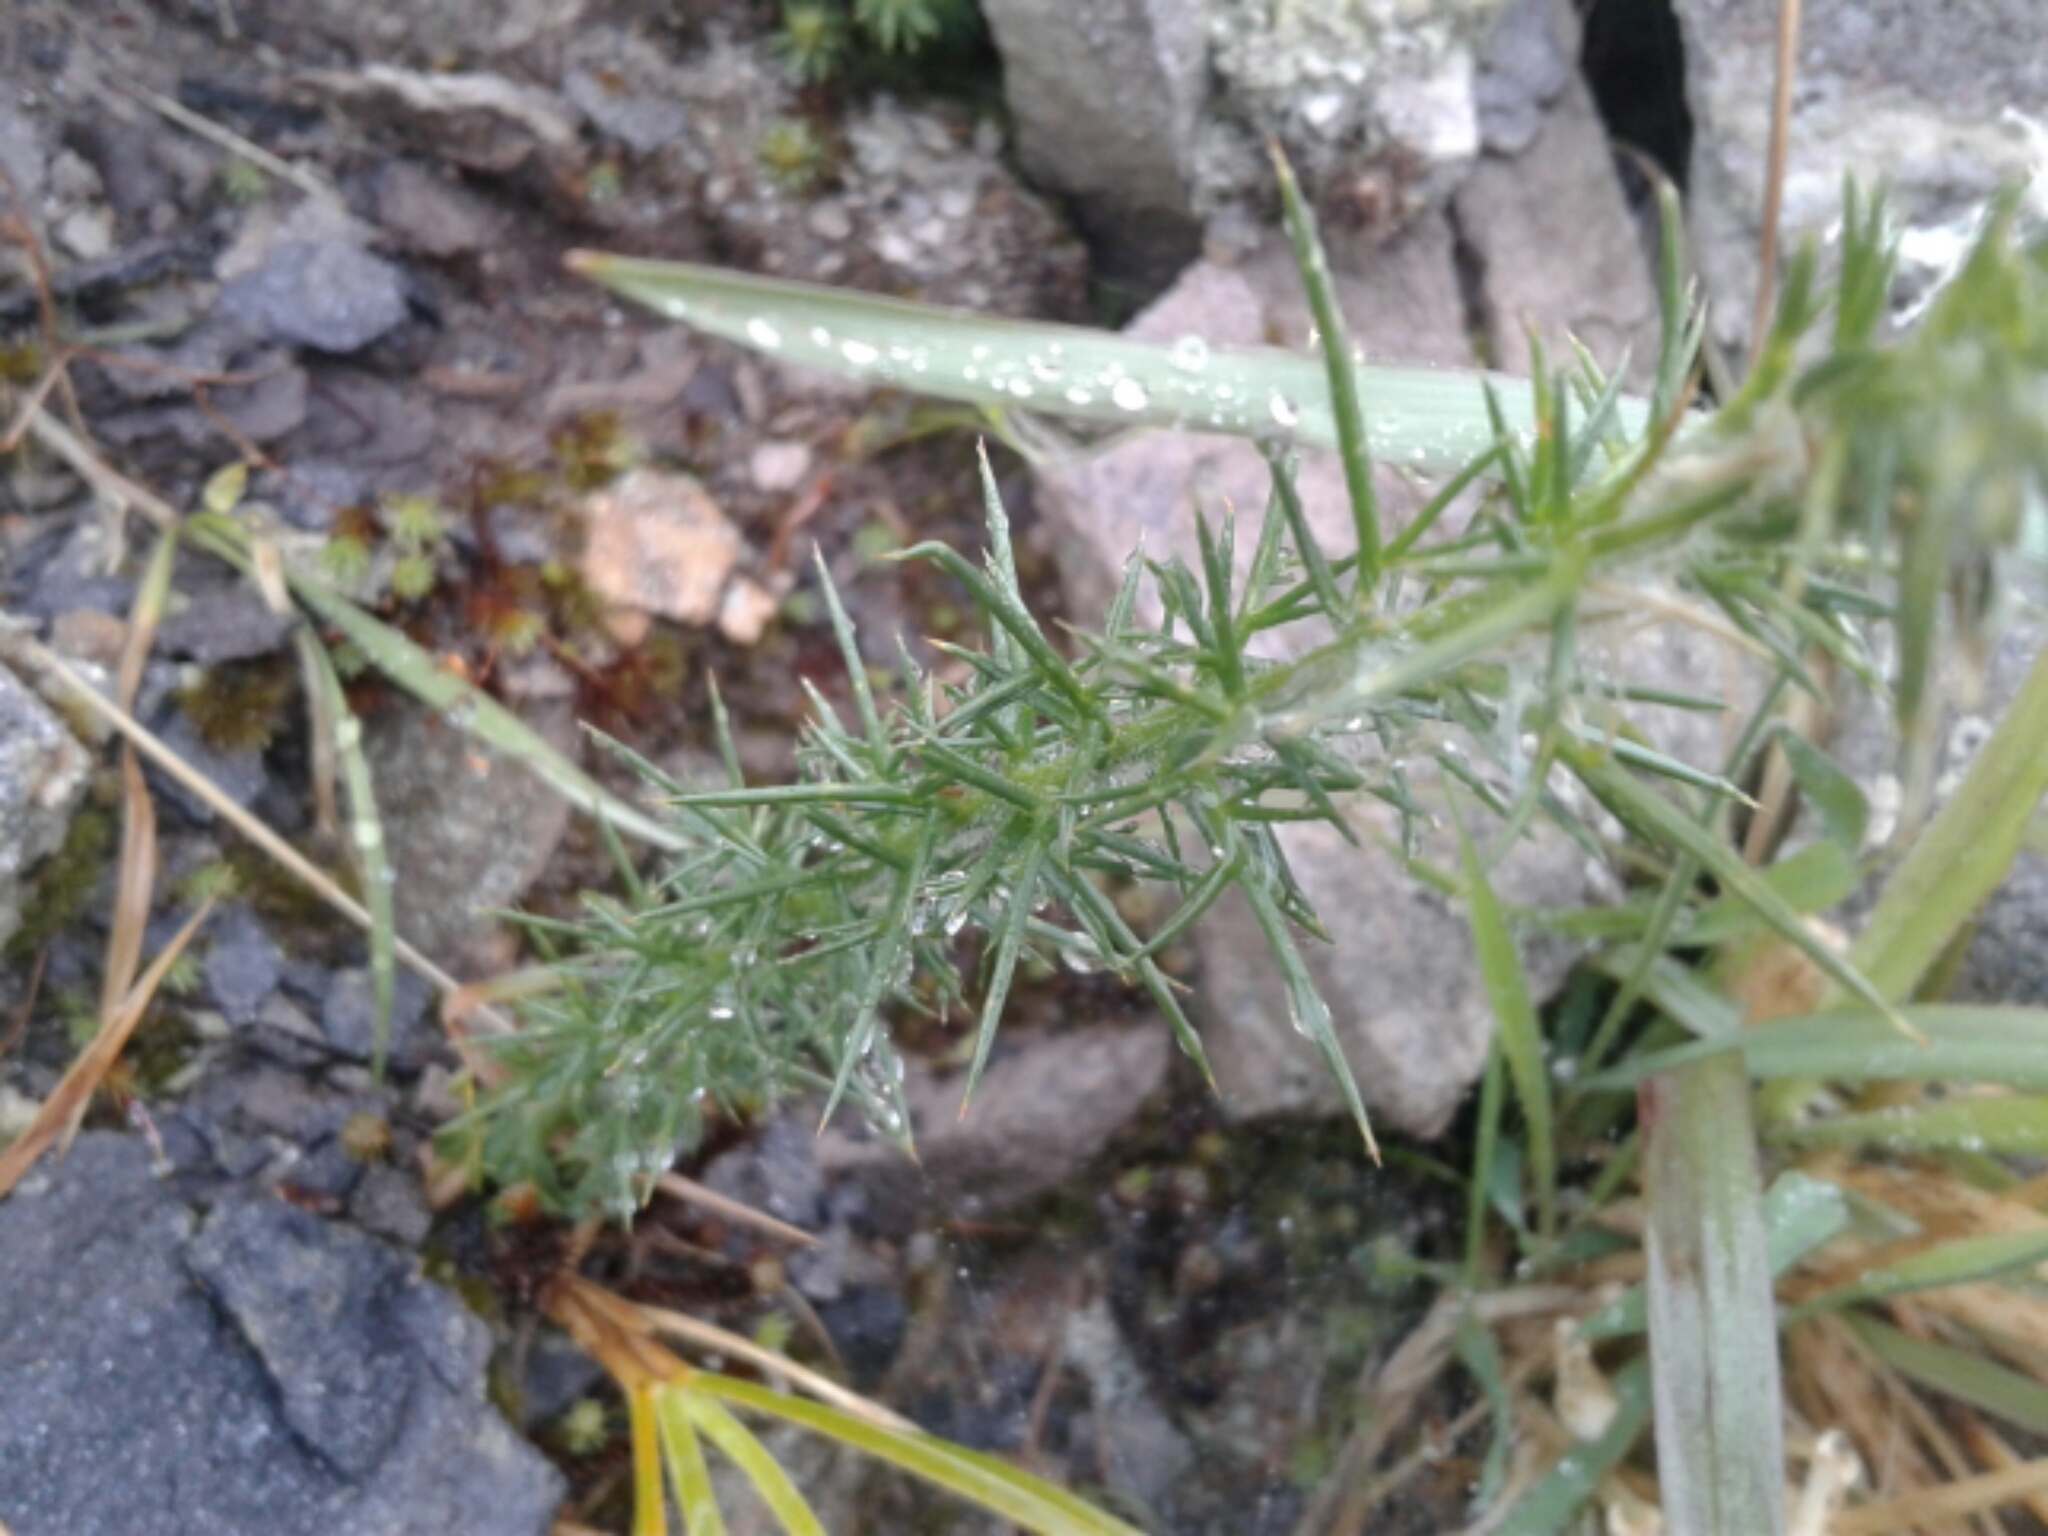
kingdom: Plantae
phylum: Tracheophyta
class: Magnoliopsida
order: Fabales
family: Fabaceae
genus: Ulex
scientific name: Ulex europaeus
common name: Common gorse
